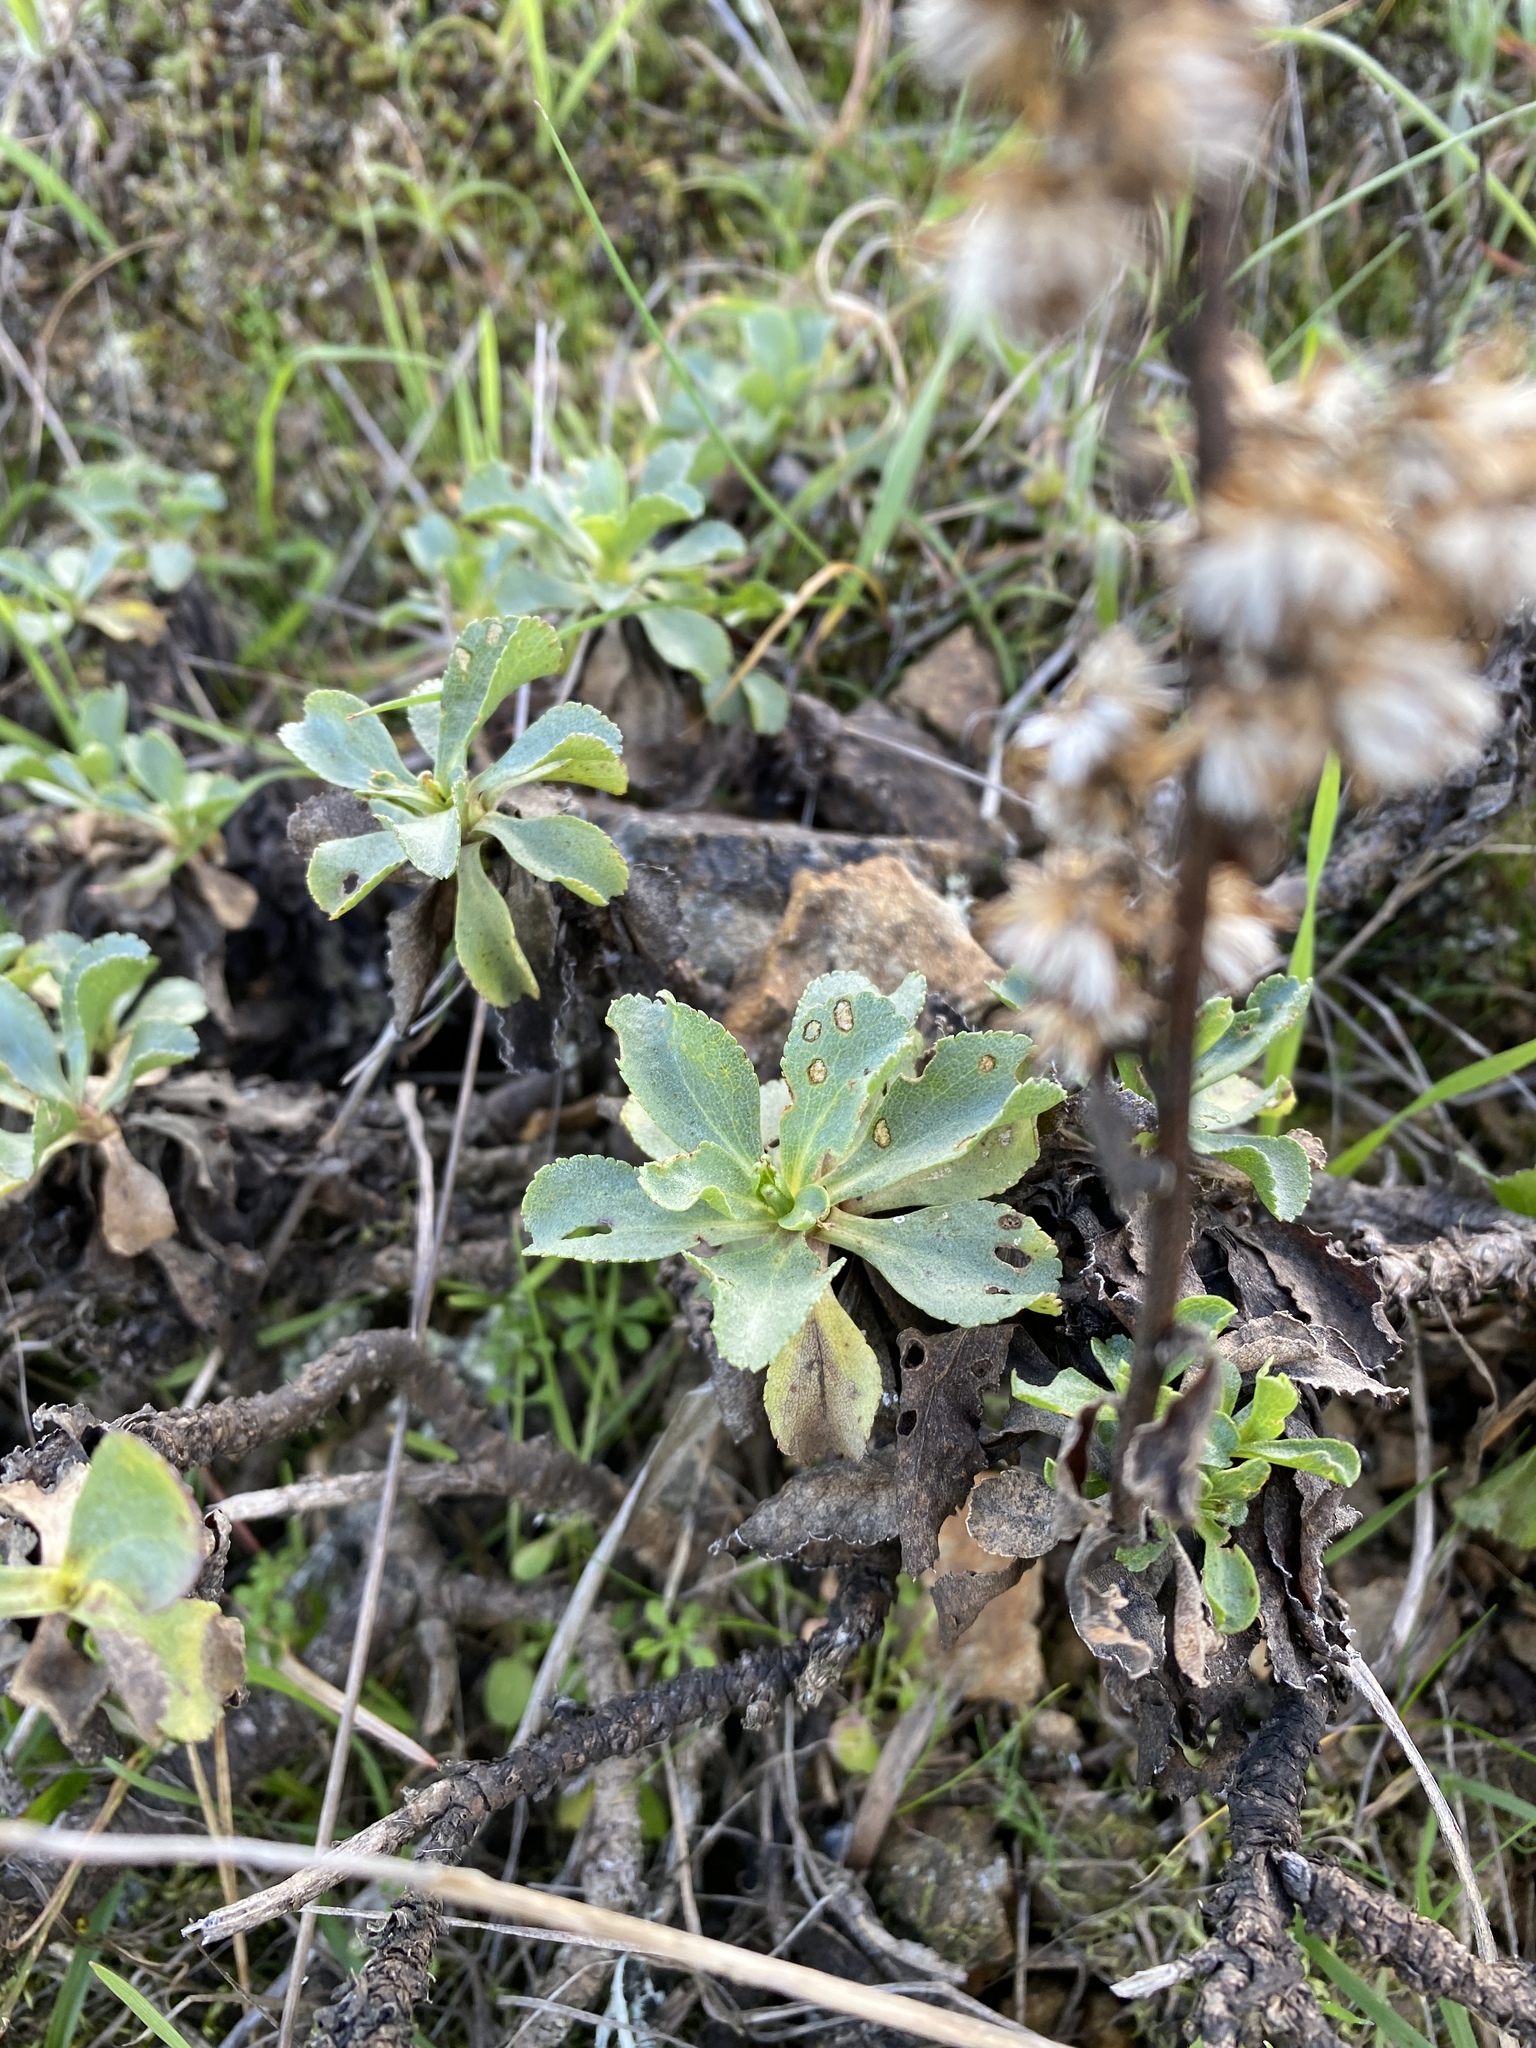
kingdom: Plantae
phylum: Tracheophyta
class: Magnoliopsida
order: Asterales
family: Asteraceae
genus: Solidago
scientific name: Solidago spathulata
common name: Coast goldenrod
